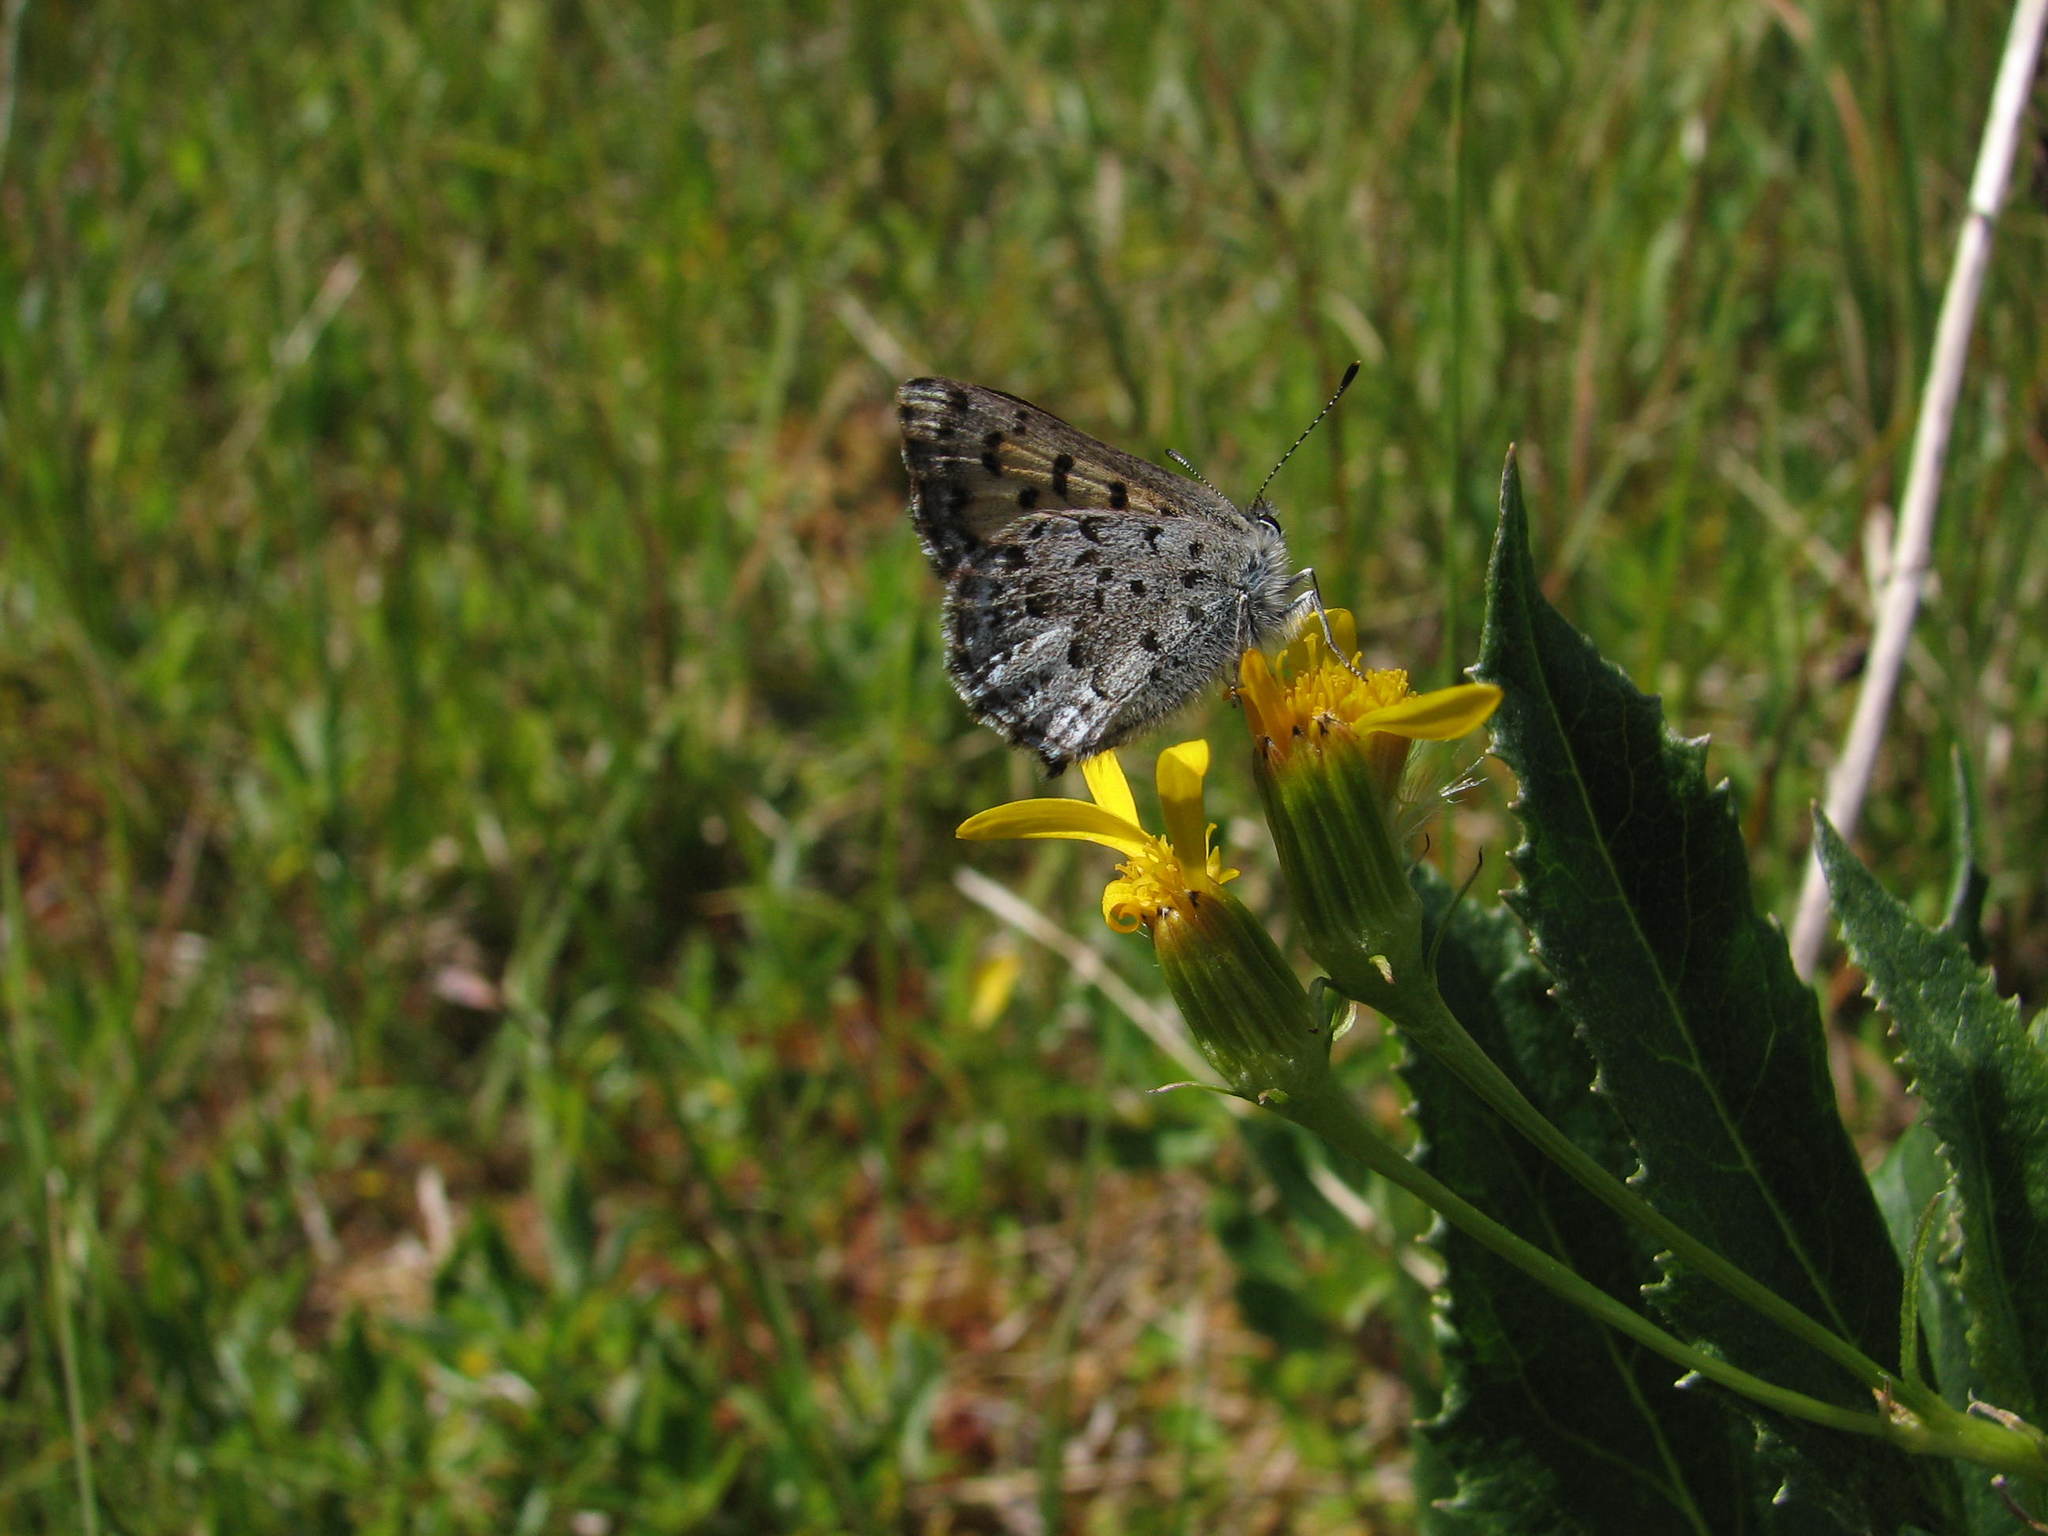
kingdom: Animalia
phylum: Arthropoda
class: Insecta
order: Lepidoptera
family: Lycaenidae
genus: Tharsalea
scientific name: Tharsalea mariposa
